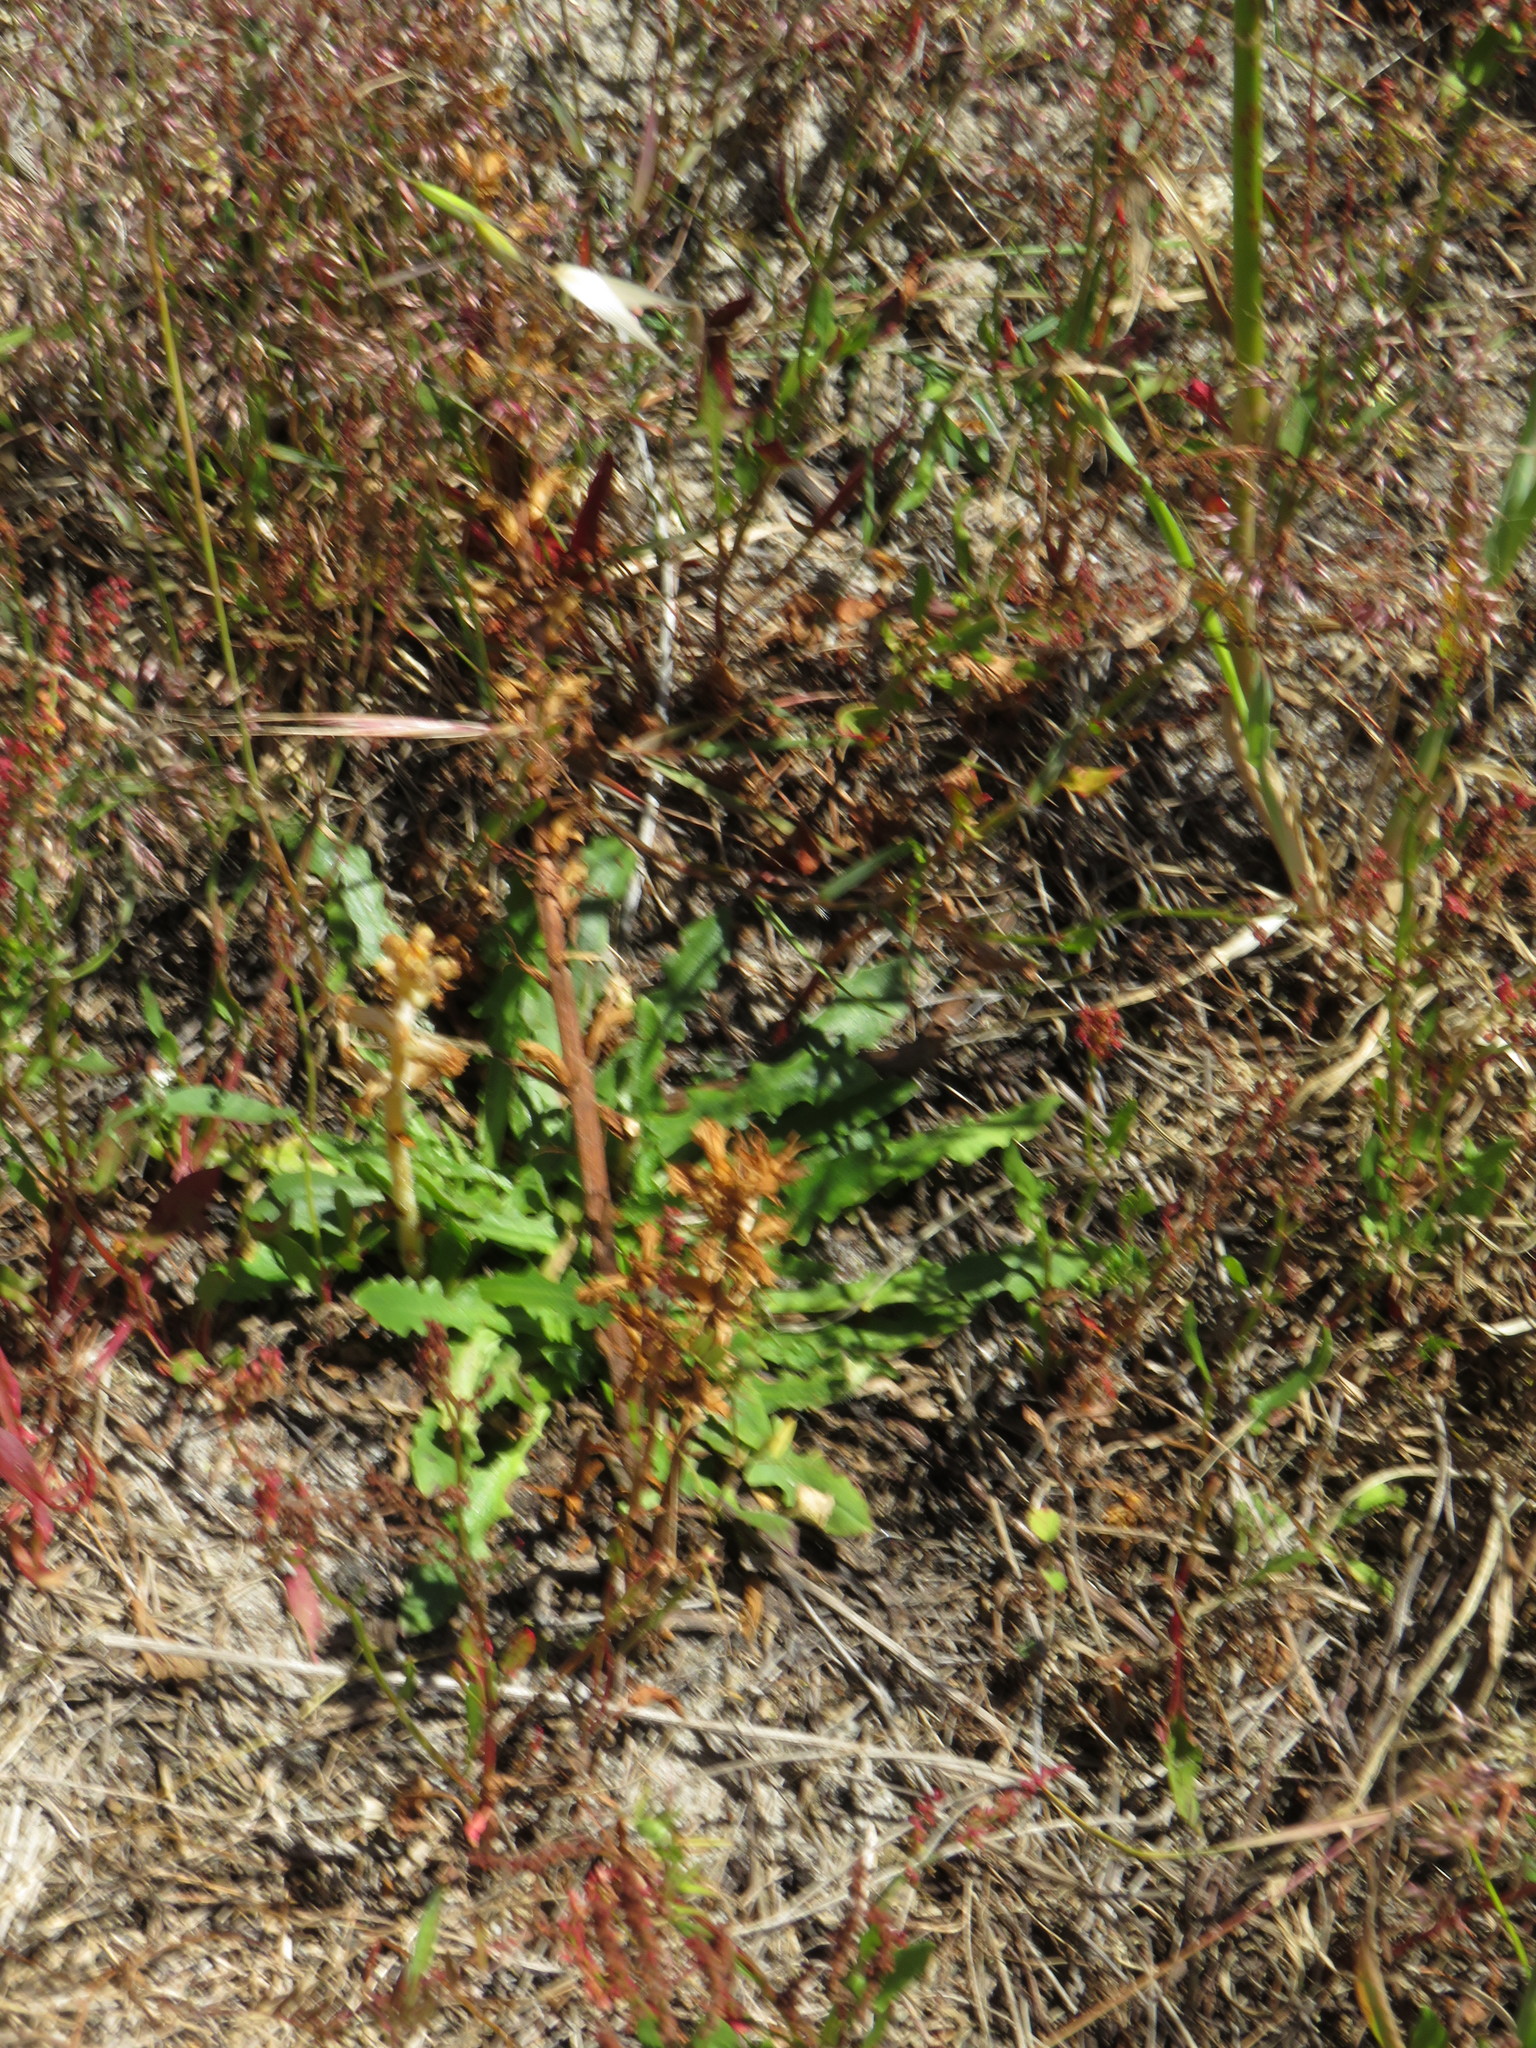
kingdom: Plantae
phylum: Tracheophyta
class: Magnoliopsida
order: Lamiales
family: Orobanchaceae
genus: Orobanche
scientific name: Orobanche minor
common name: Common broomrape
